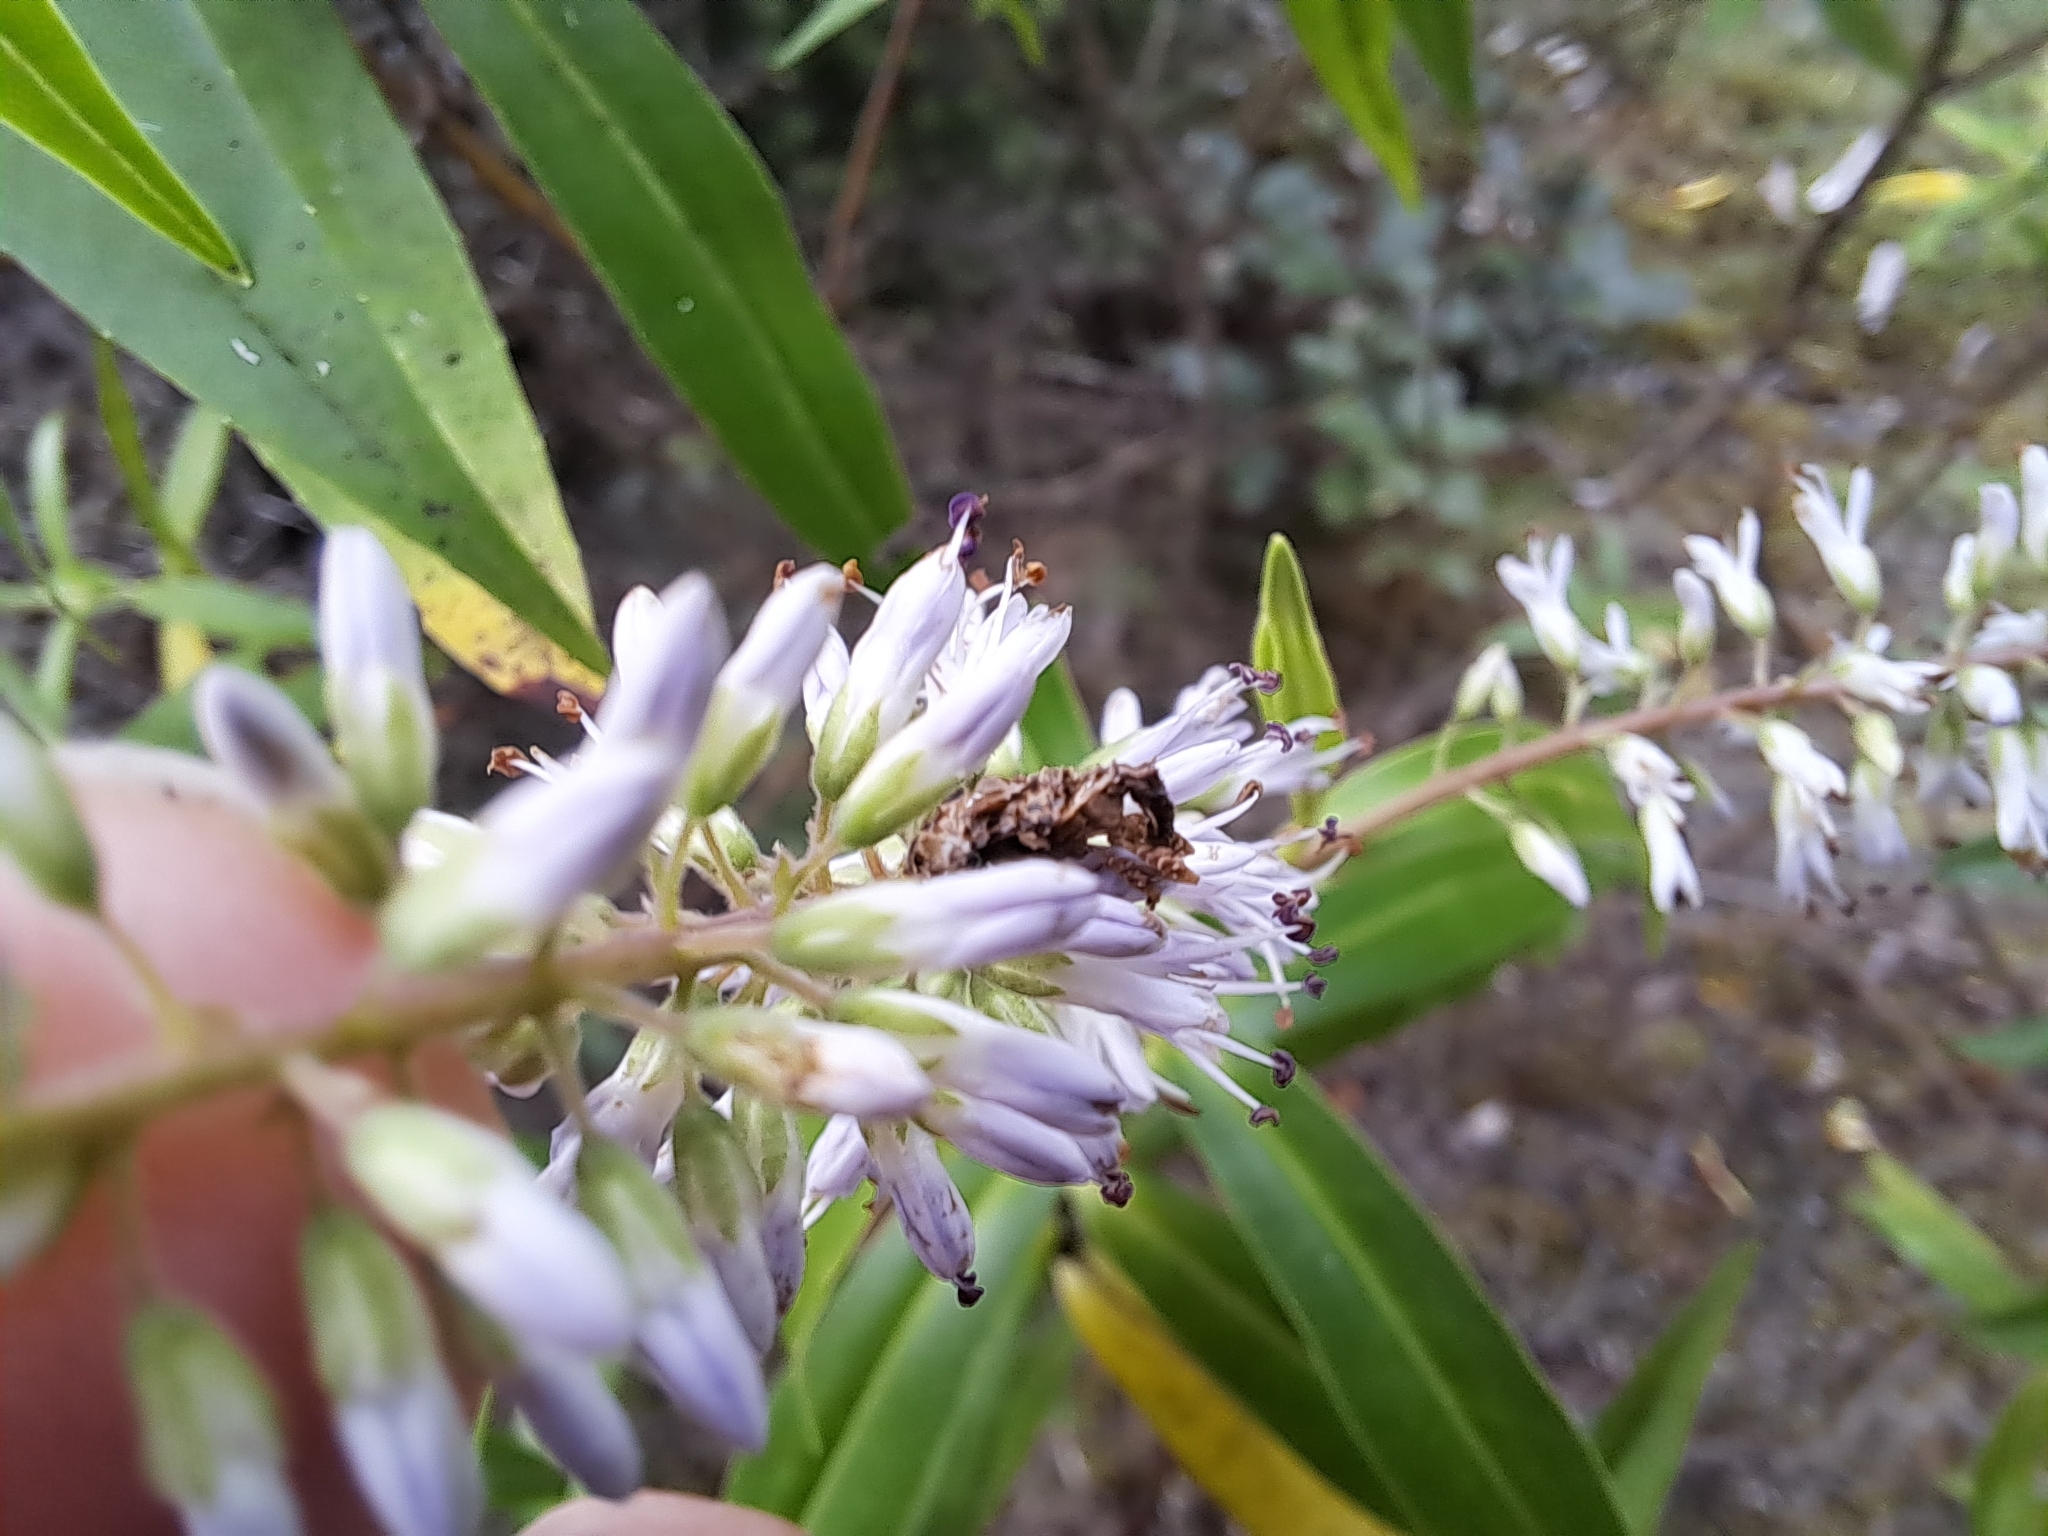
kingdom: Animalia
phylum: Arthropoda
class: Insecta
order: Coleoptera
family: Curculionidae
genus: Stephanorhynchus
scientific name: Stephanorhynchus curvipes
